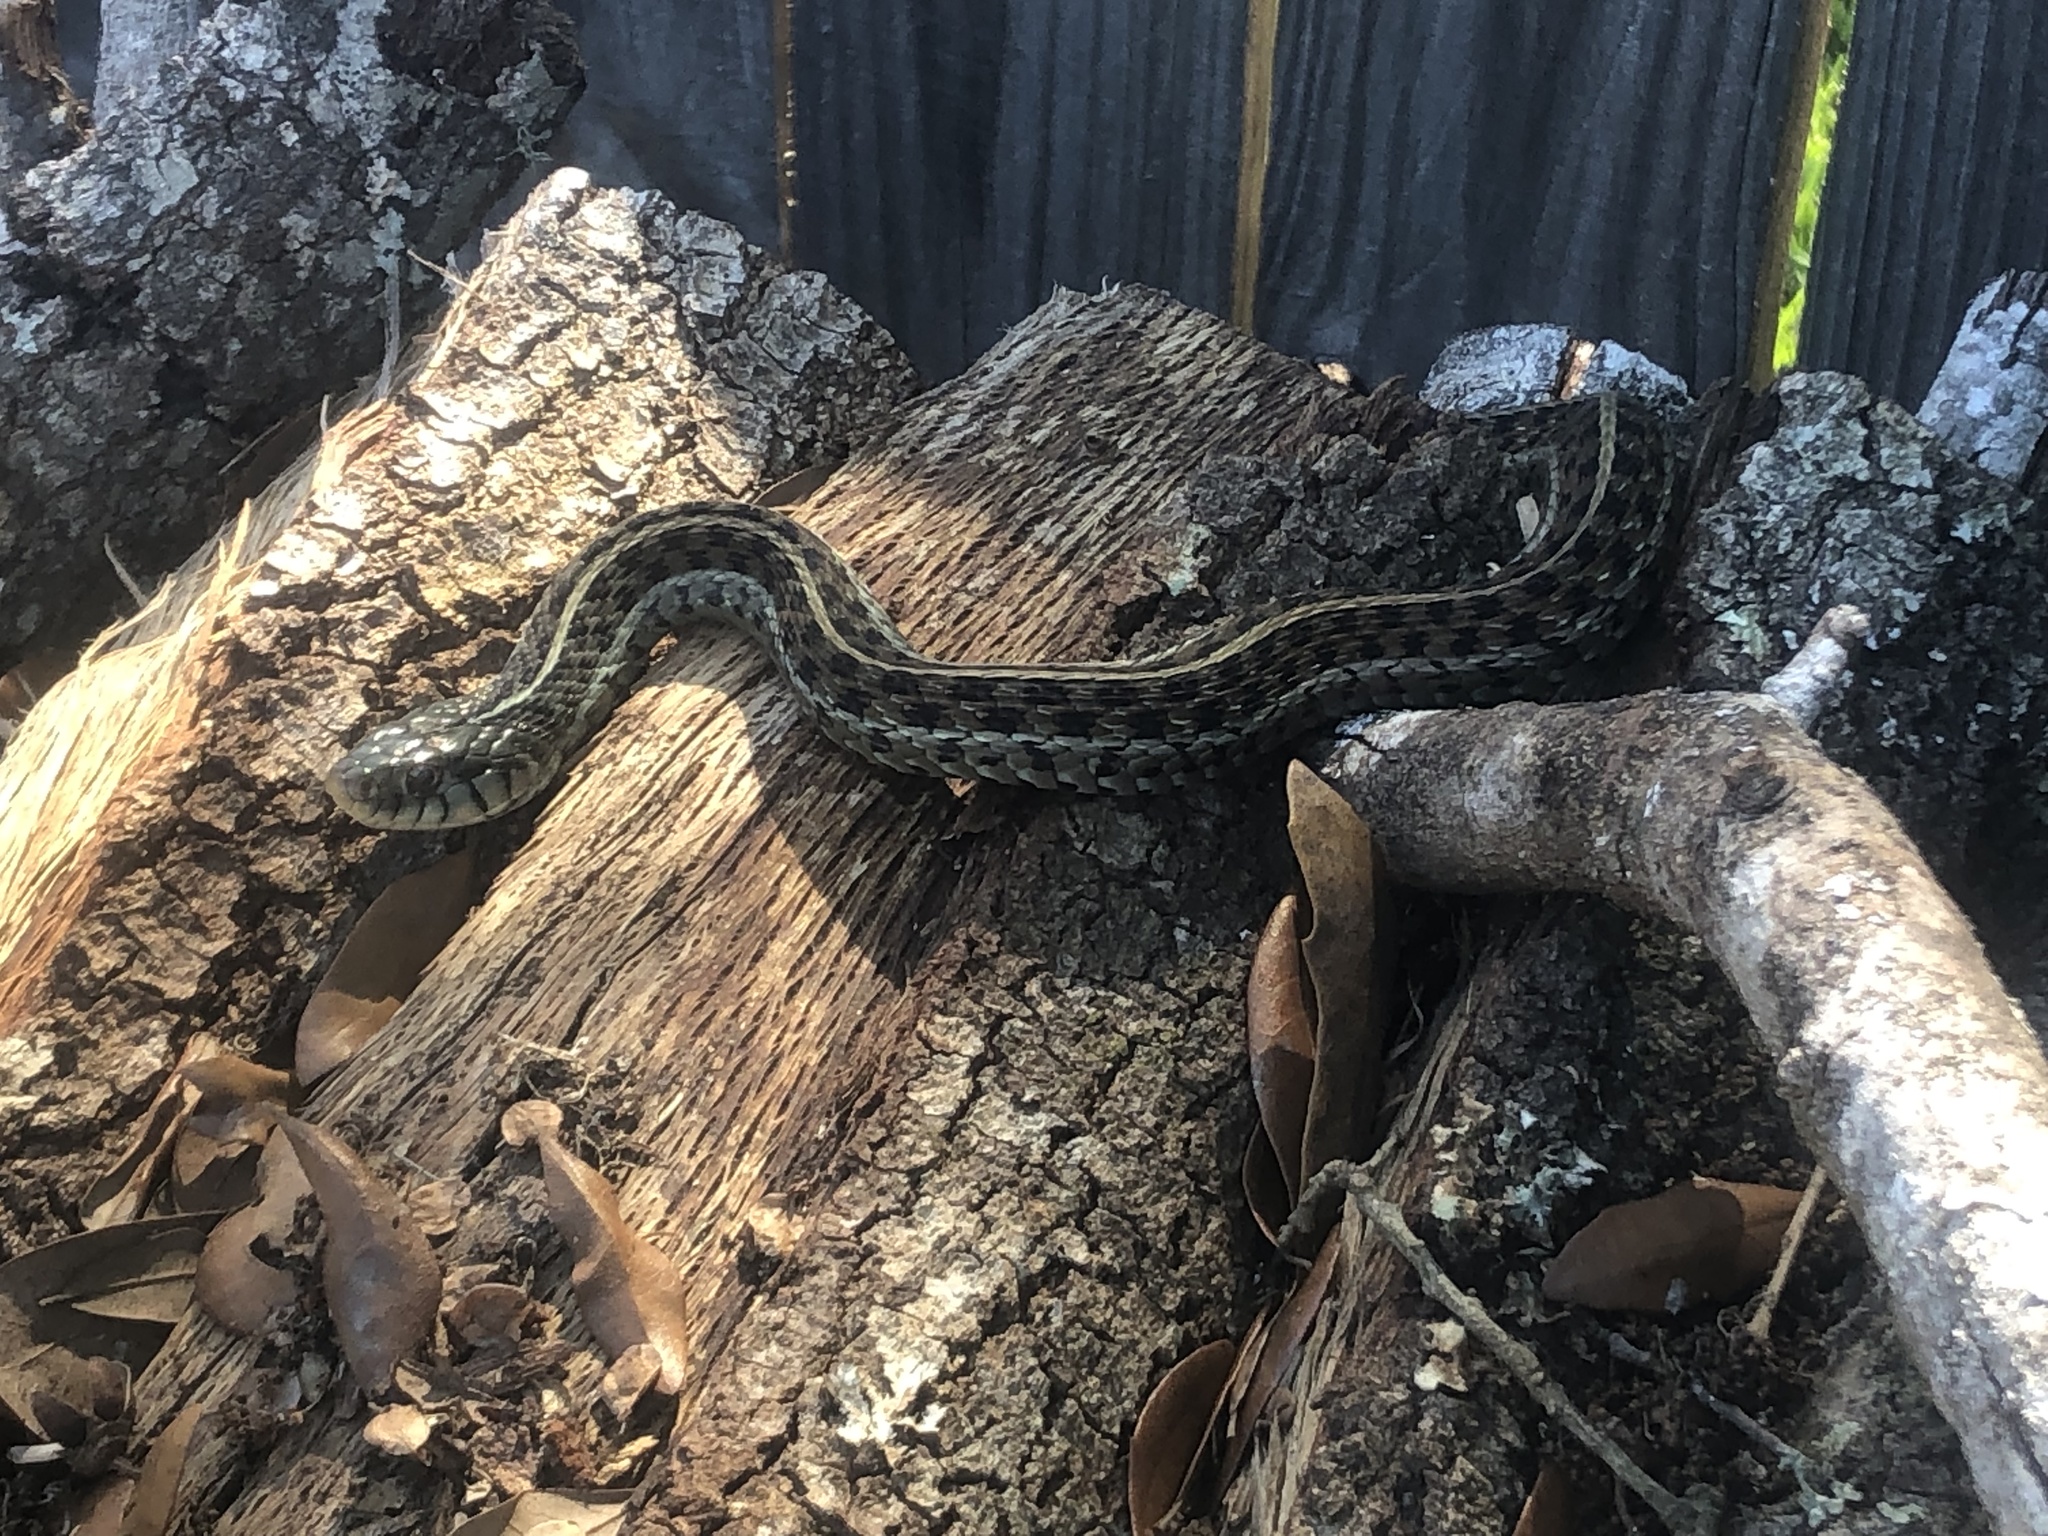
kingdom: Animalia
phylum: Chordata
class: Squamata
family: Colubridae
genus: Thamnophis
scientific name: Thamnophis sirtalis
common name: Common garter snake
